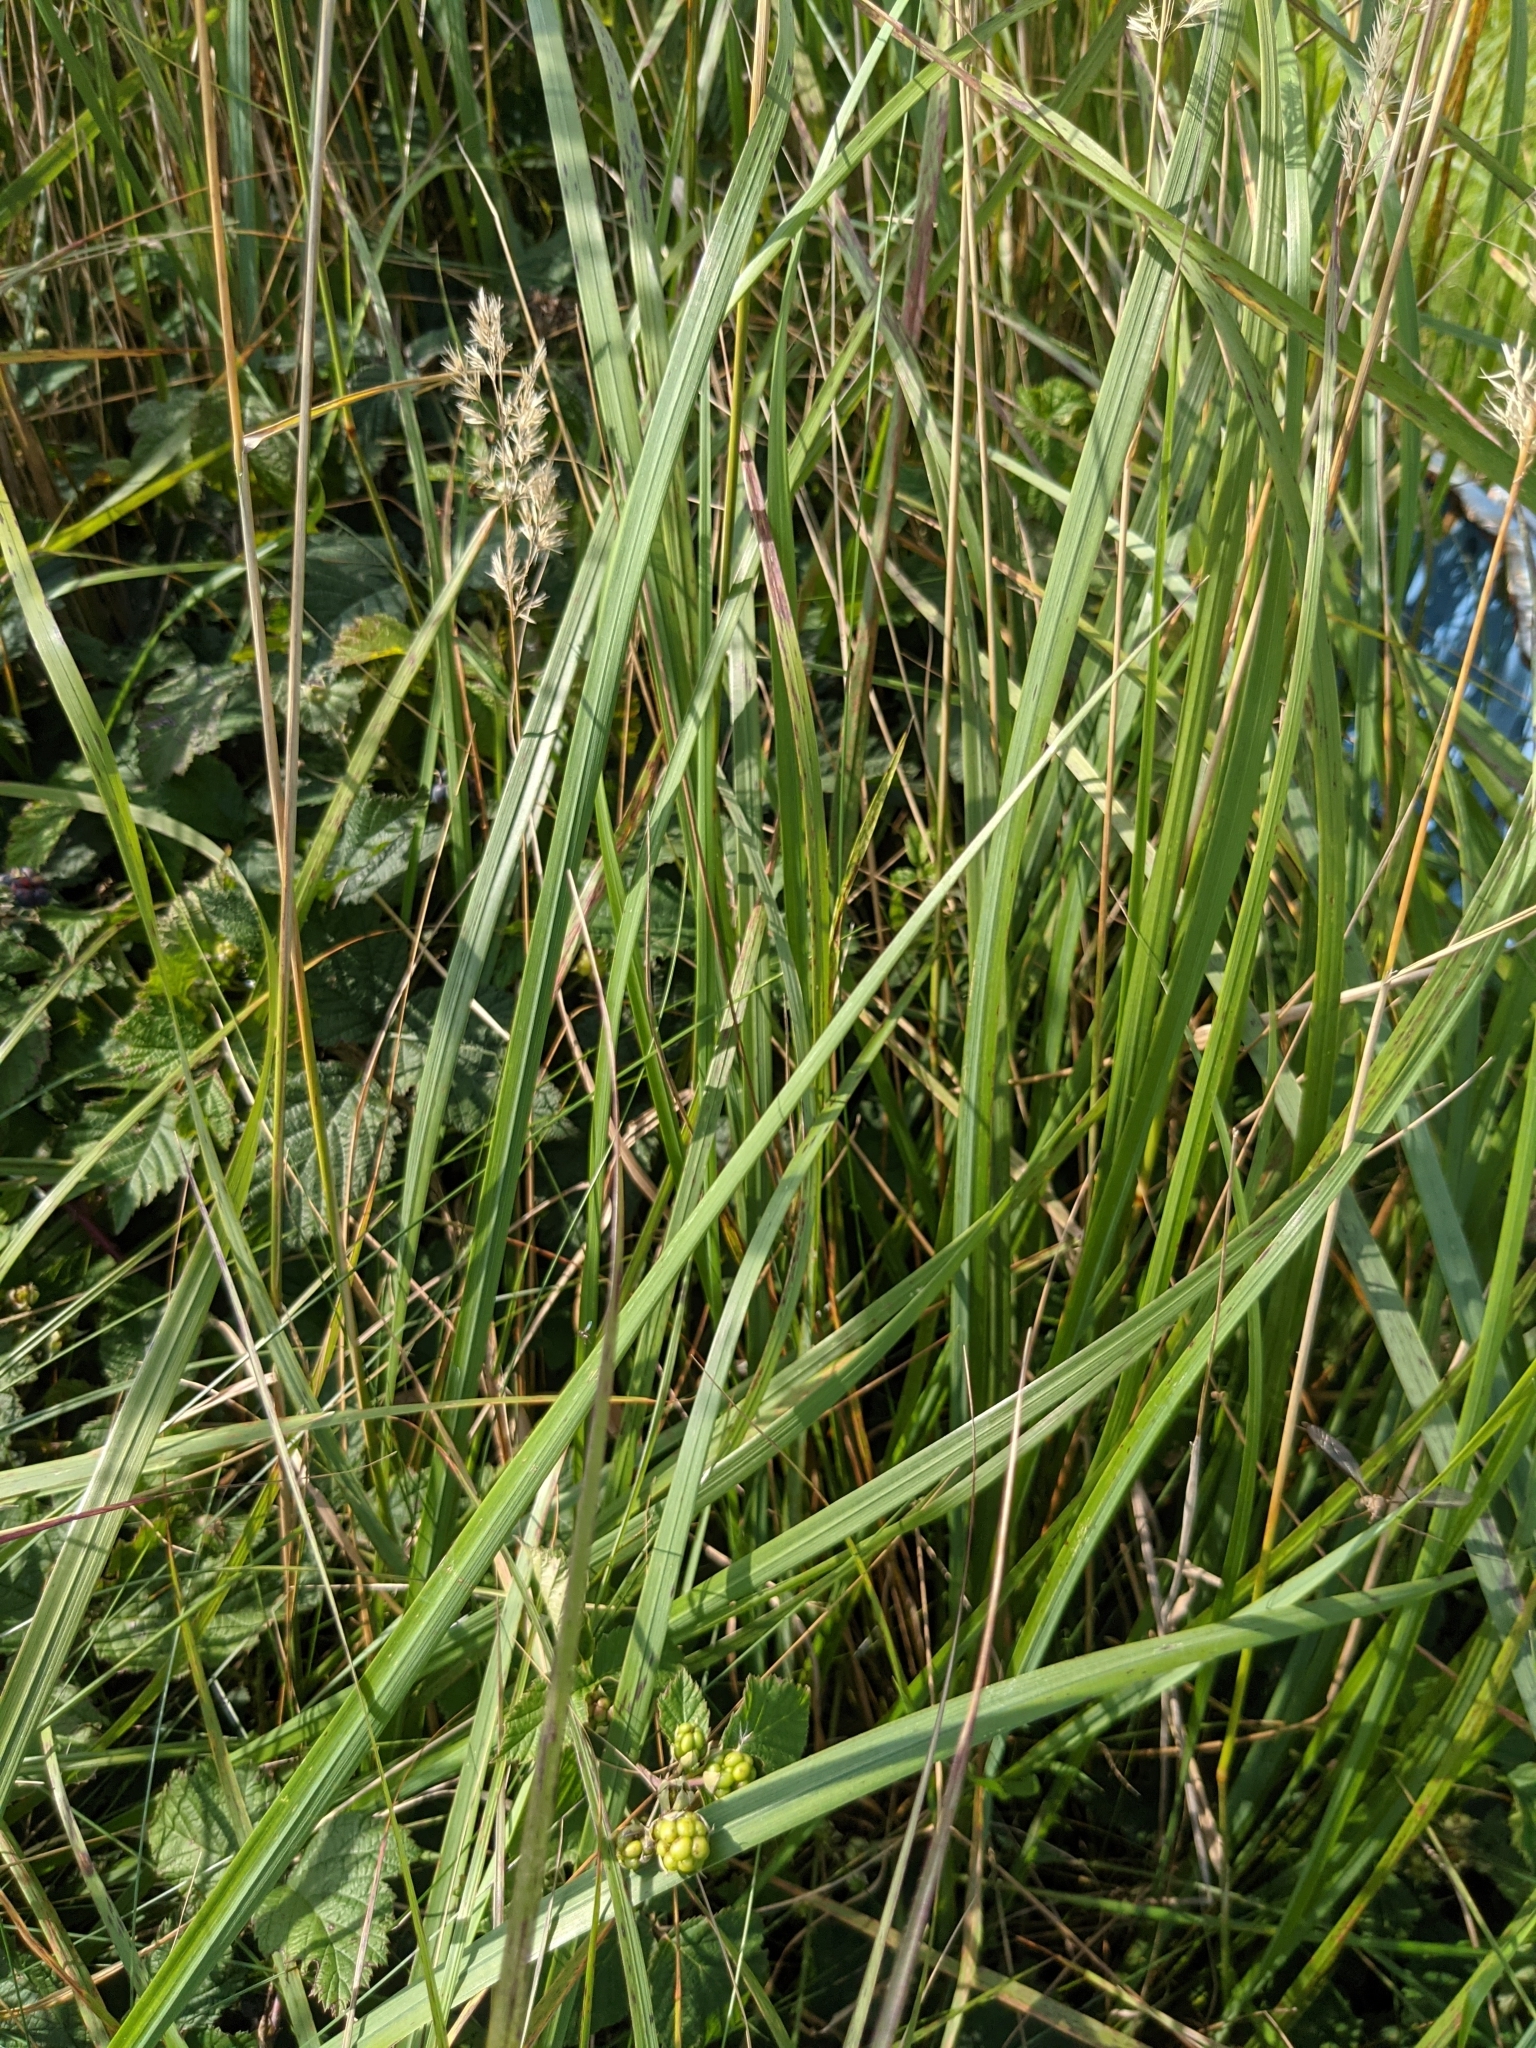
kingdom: Plantae
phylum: Tracheophyta
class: Liliopsida
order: Poales
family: Poaceae
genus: Calamagrostis
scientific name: Calamagrostis epigejos
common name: Wood small-reed
